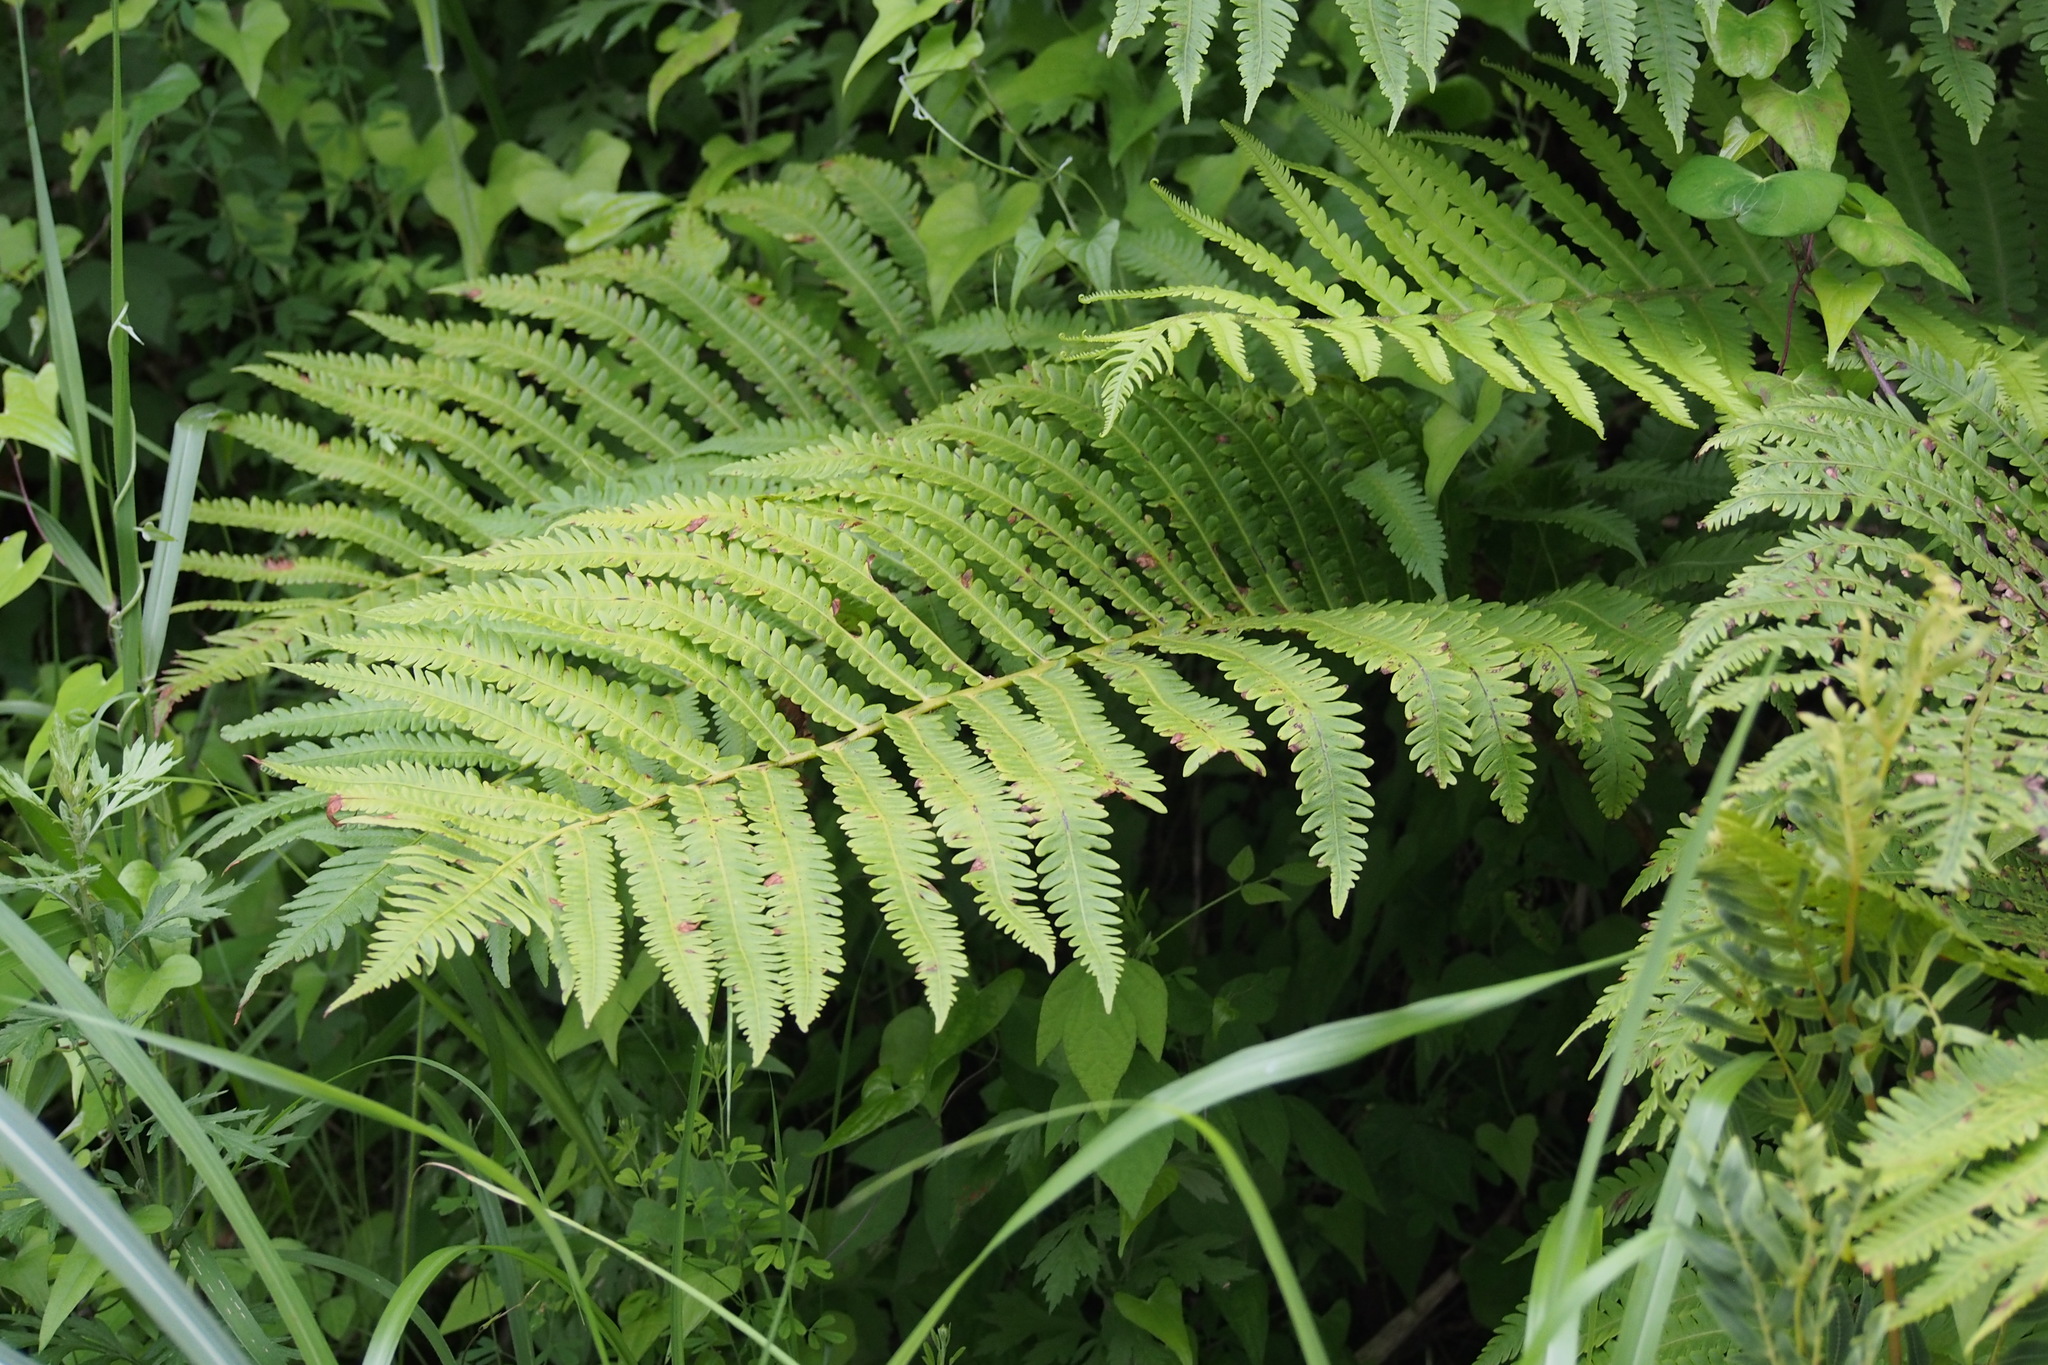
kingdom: Plantae
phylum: Tracheophyta
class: Polypodiopsida
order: Polypodiales
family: Onocleaceae
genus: Pentarhizidium
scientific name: Pentarhizidium orientale
